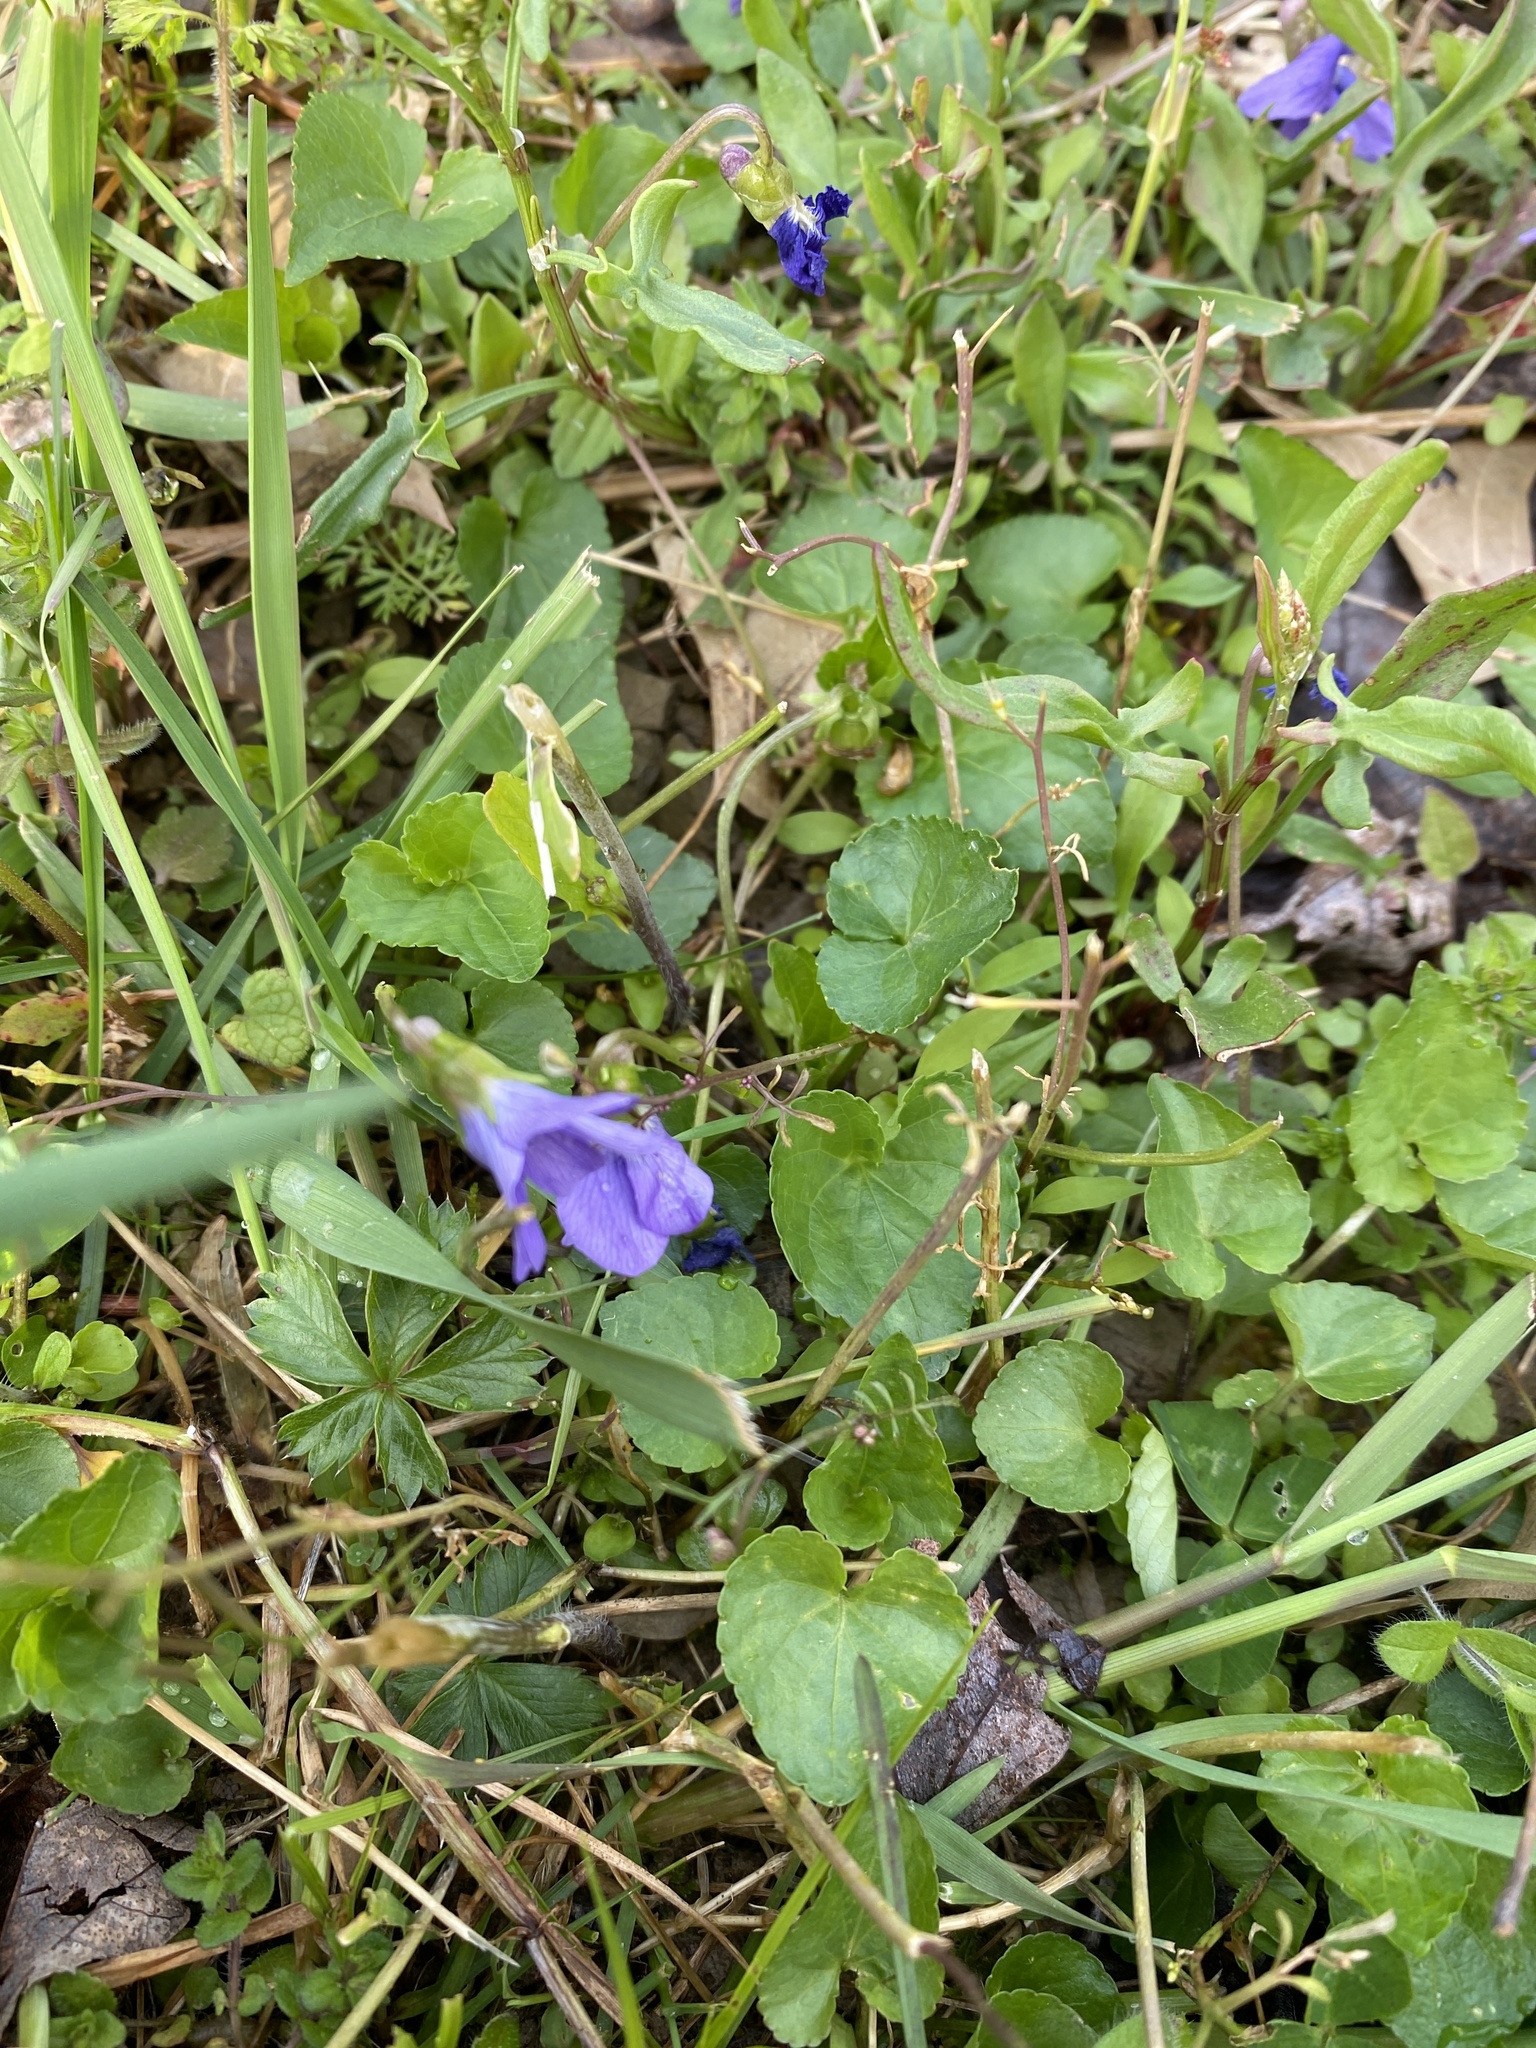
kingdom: Plantae
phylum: Tracheophyta
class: Magnoliopsida
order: Malpighiales
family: Violaceae
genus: Viola
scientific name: Viola sororia
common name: Dooryard violet
